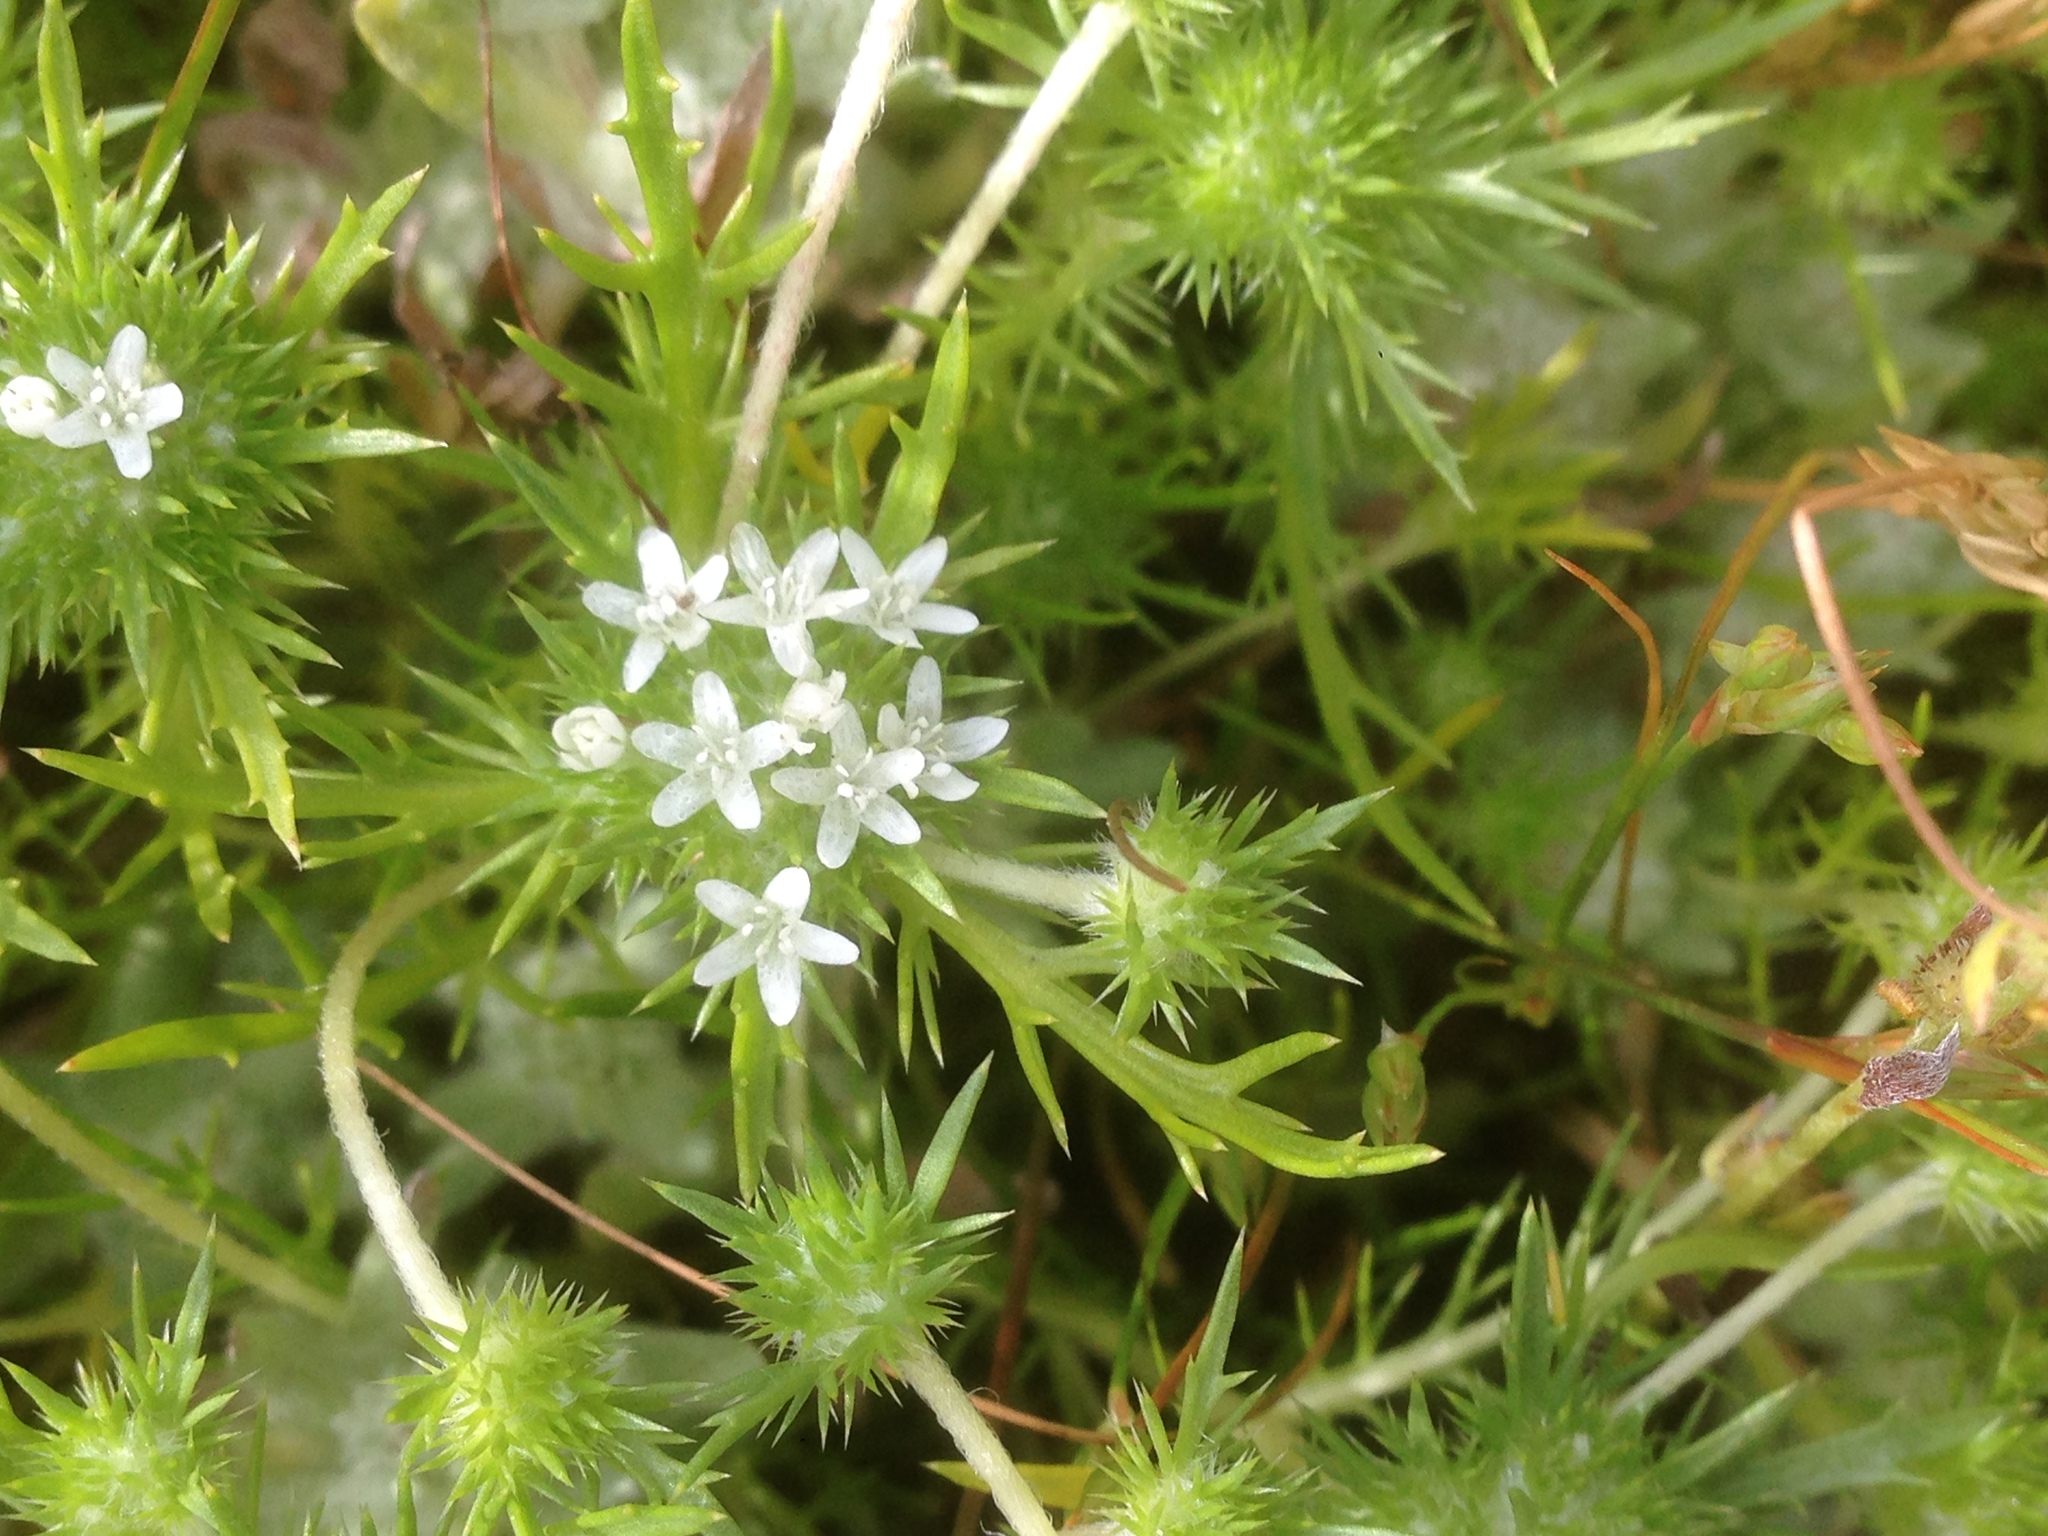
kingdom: Plantae
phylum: Tracheophyta
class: Magnoliopsida
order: Ericales
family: Polemoniaceae
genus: Navarretia
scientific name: Navarretia fossalis
